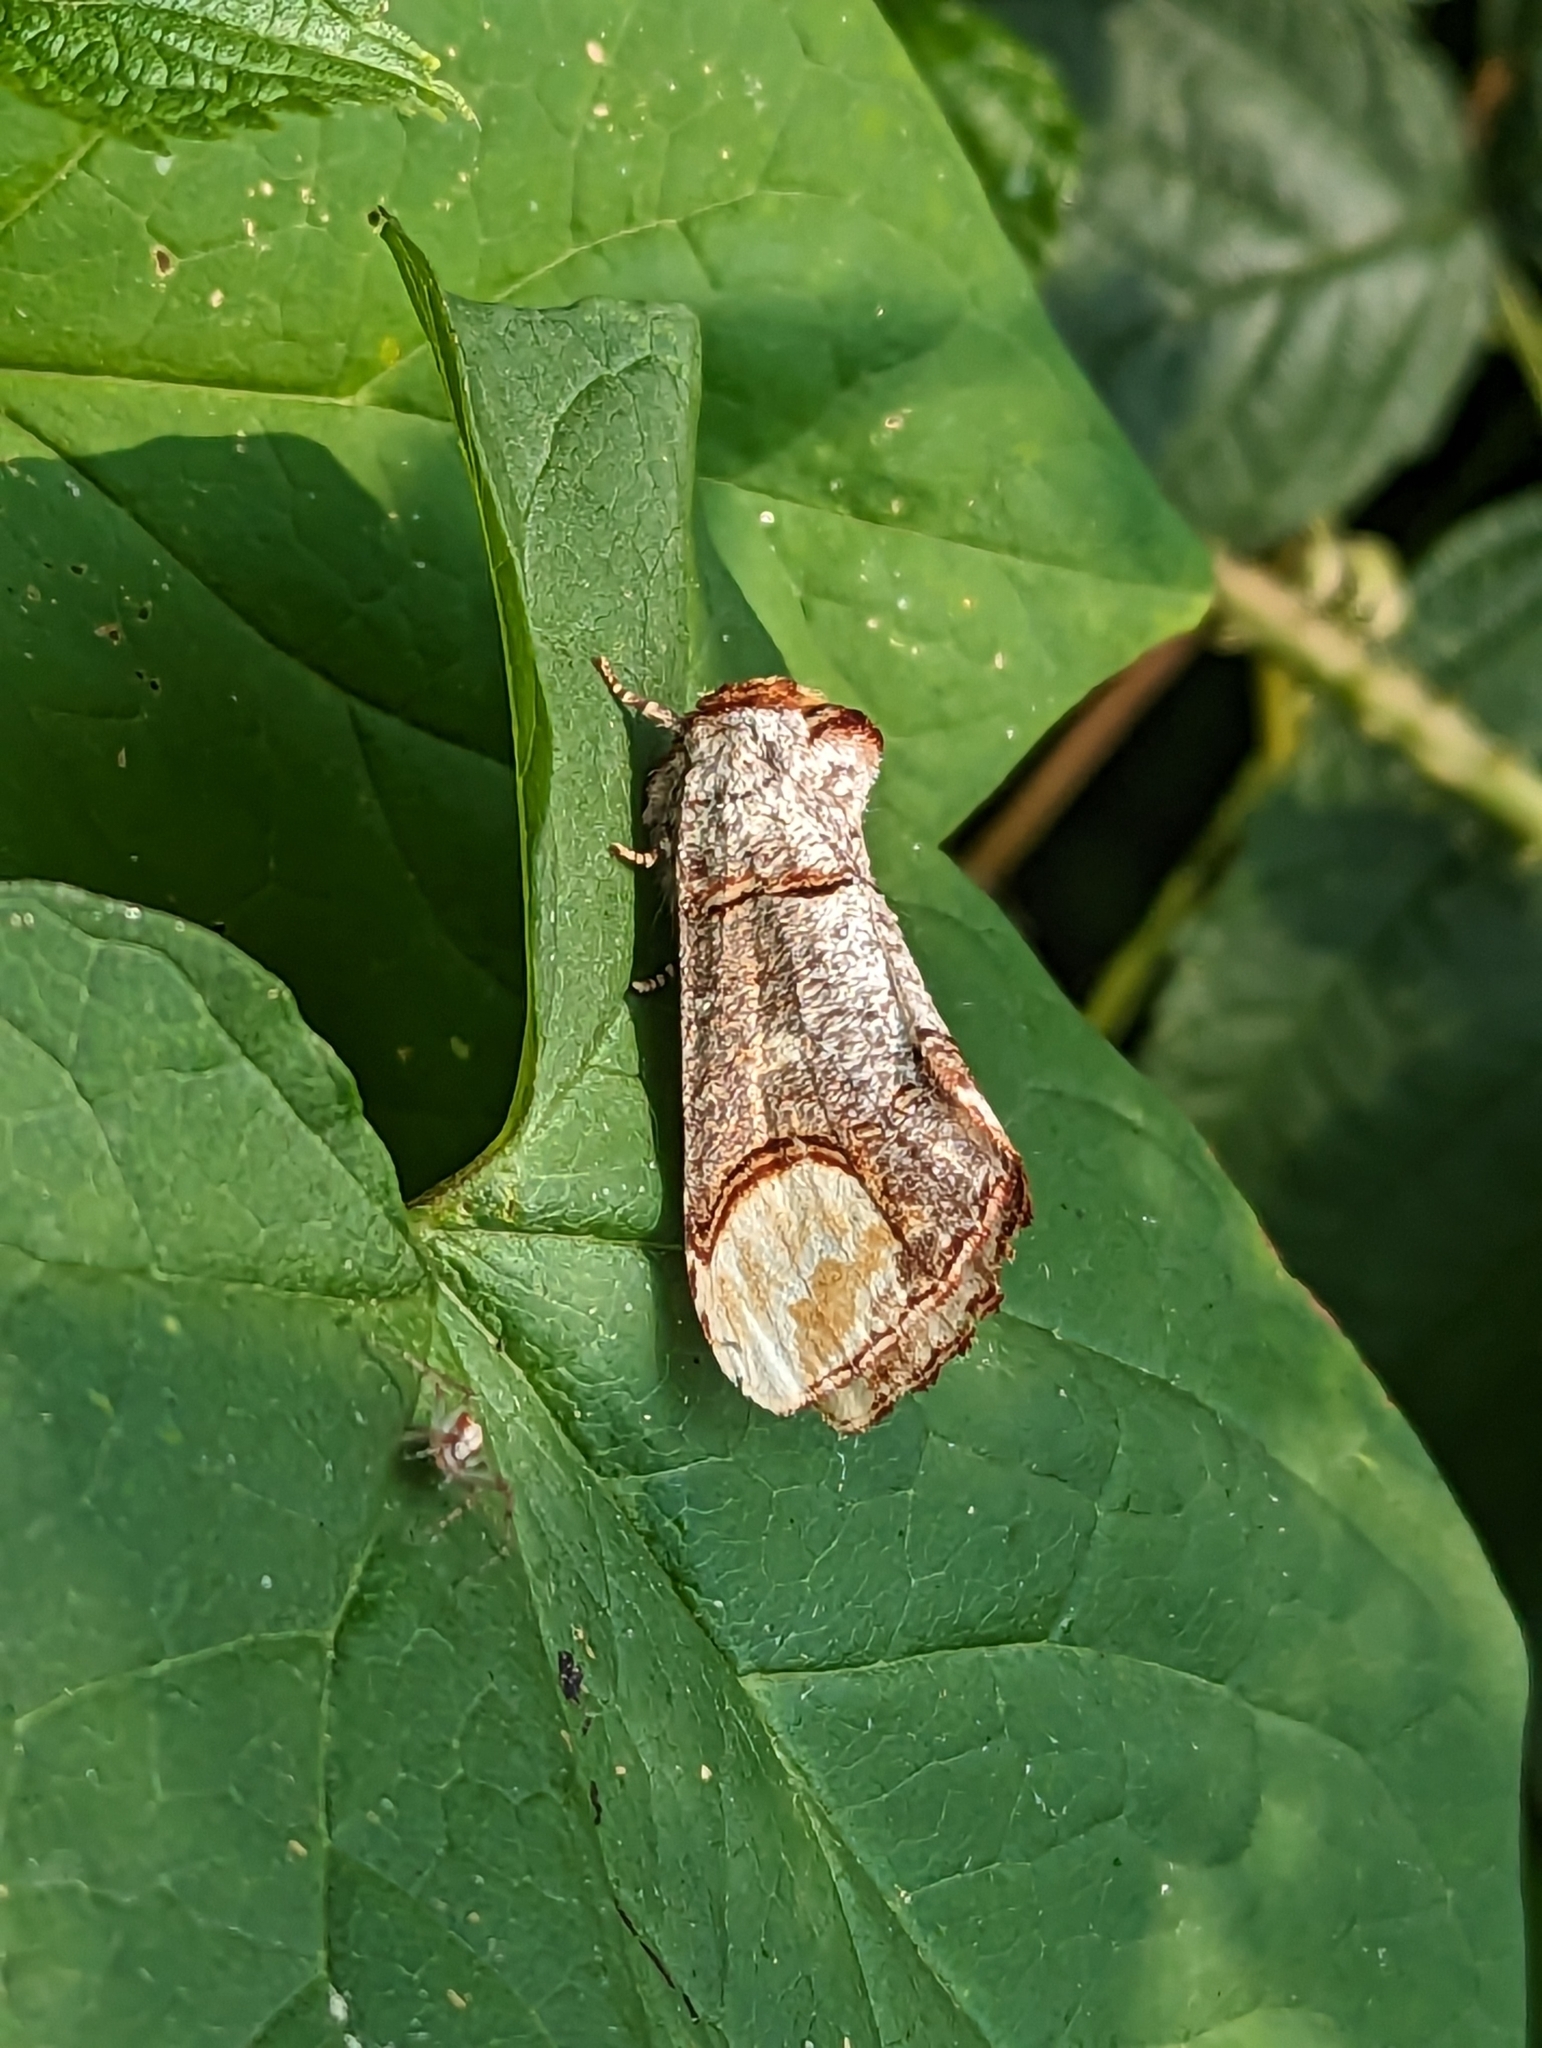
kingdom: Animalia
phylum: Arthropoda
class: Insecta
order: Lepidoptera
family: Notodontidae
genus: Phalera
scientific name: Phalera bucephala
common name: Buff-tip
